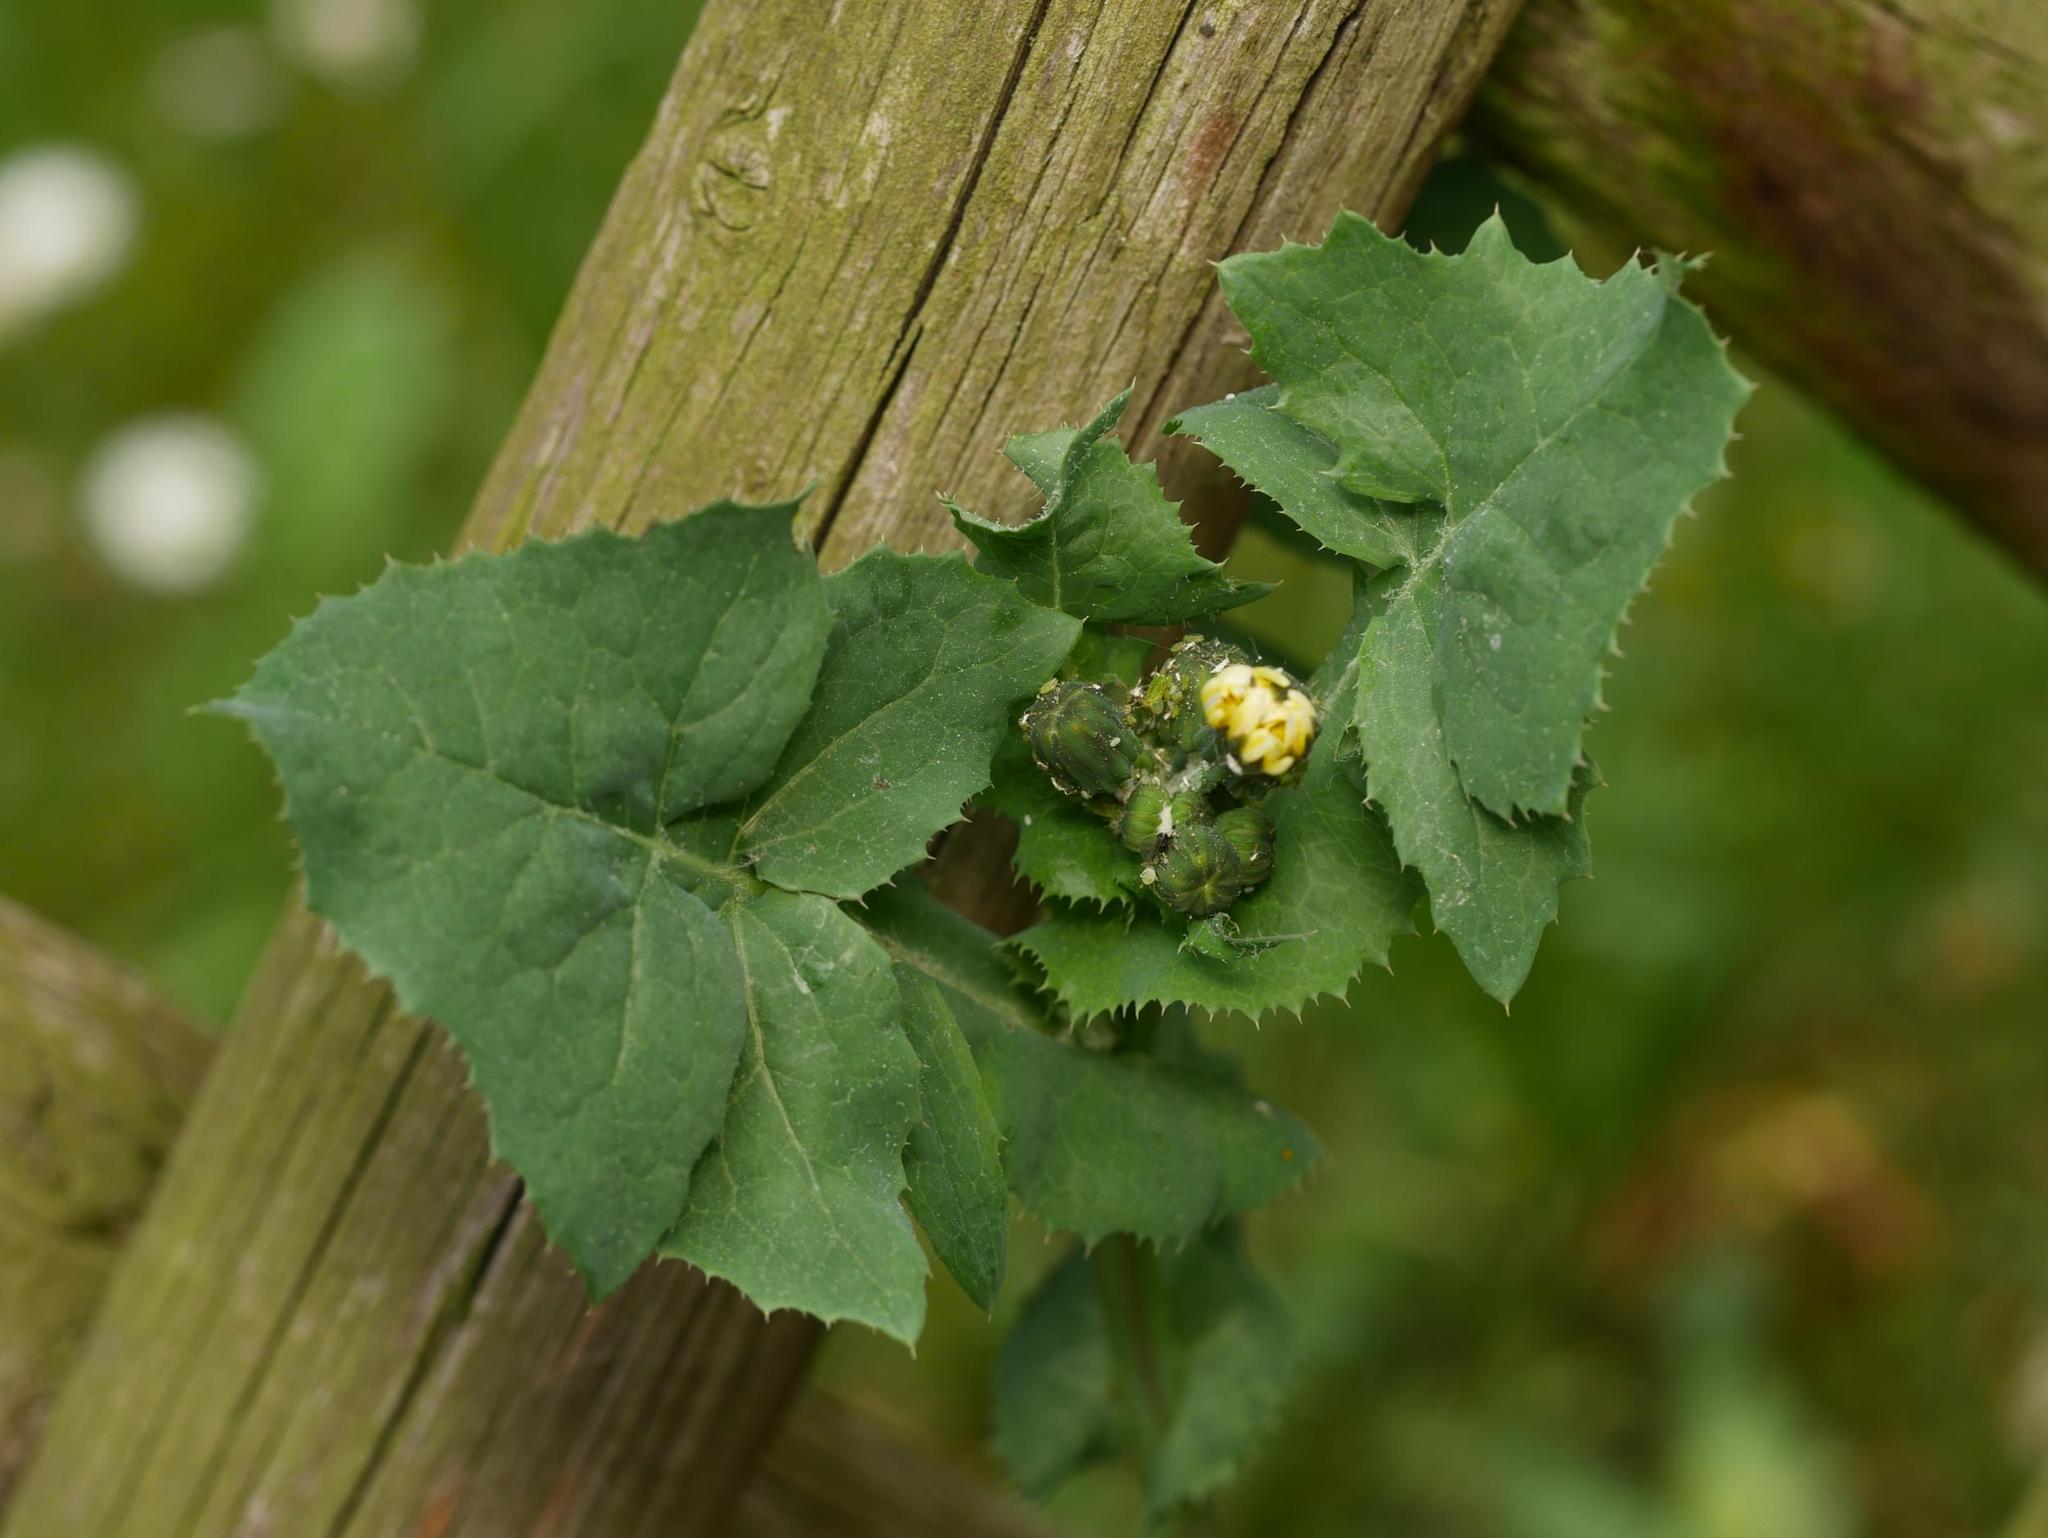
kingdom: Plantae
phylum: Tracheophyta
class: Magnoliopsida
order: Asterales
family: Asteraceae
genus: Sonchus
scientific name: Sonchus oleraceus
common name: Common sowthistle
